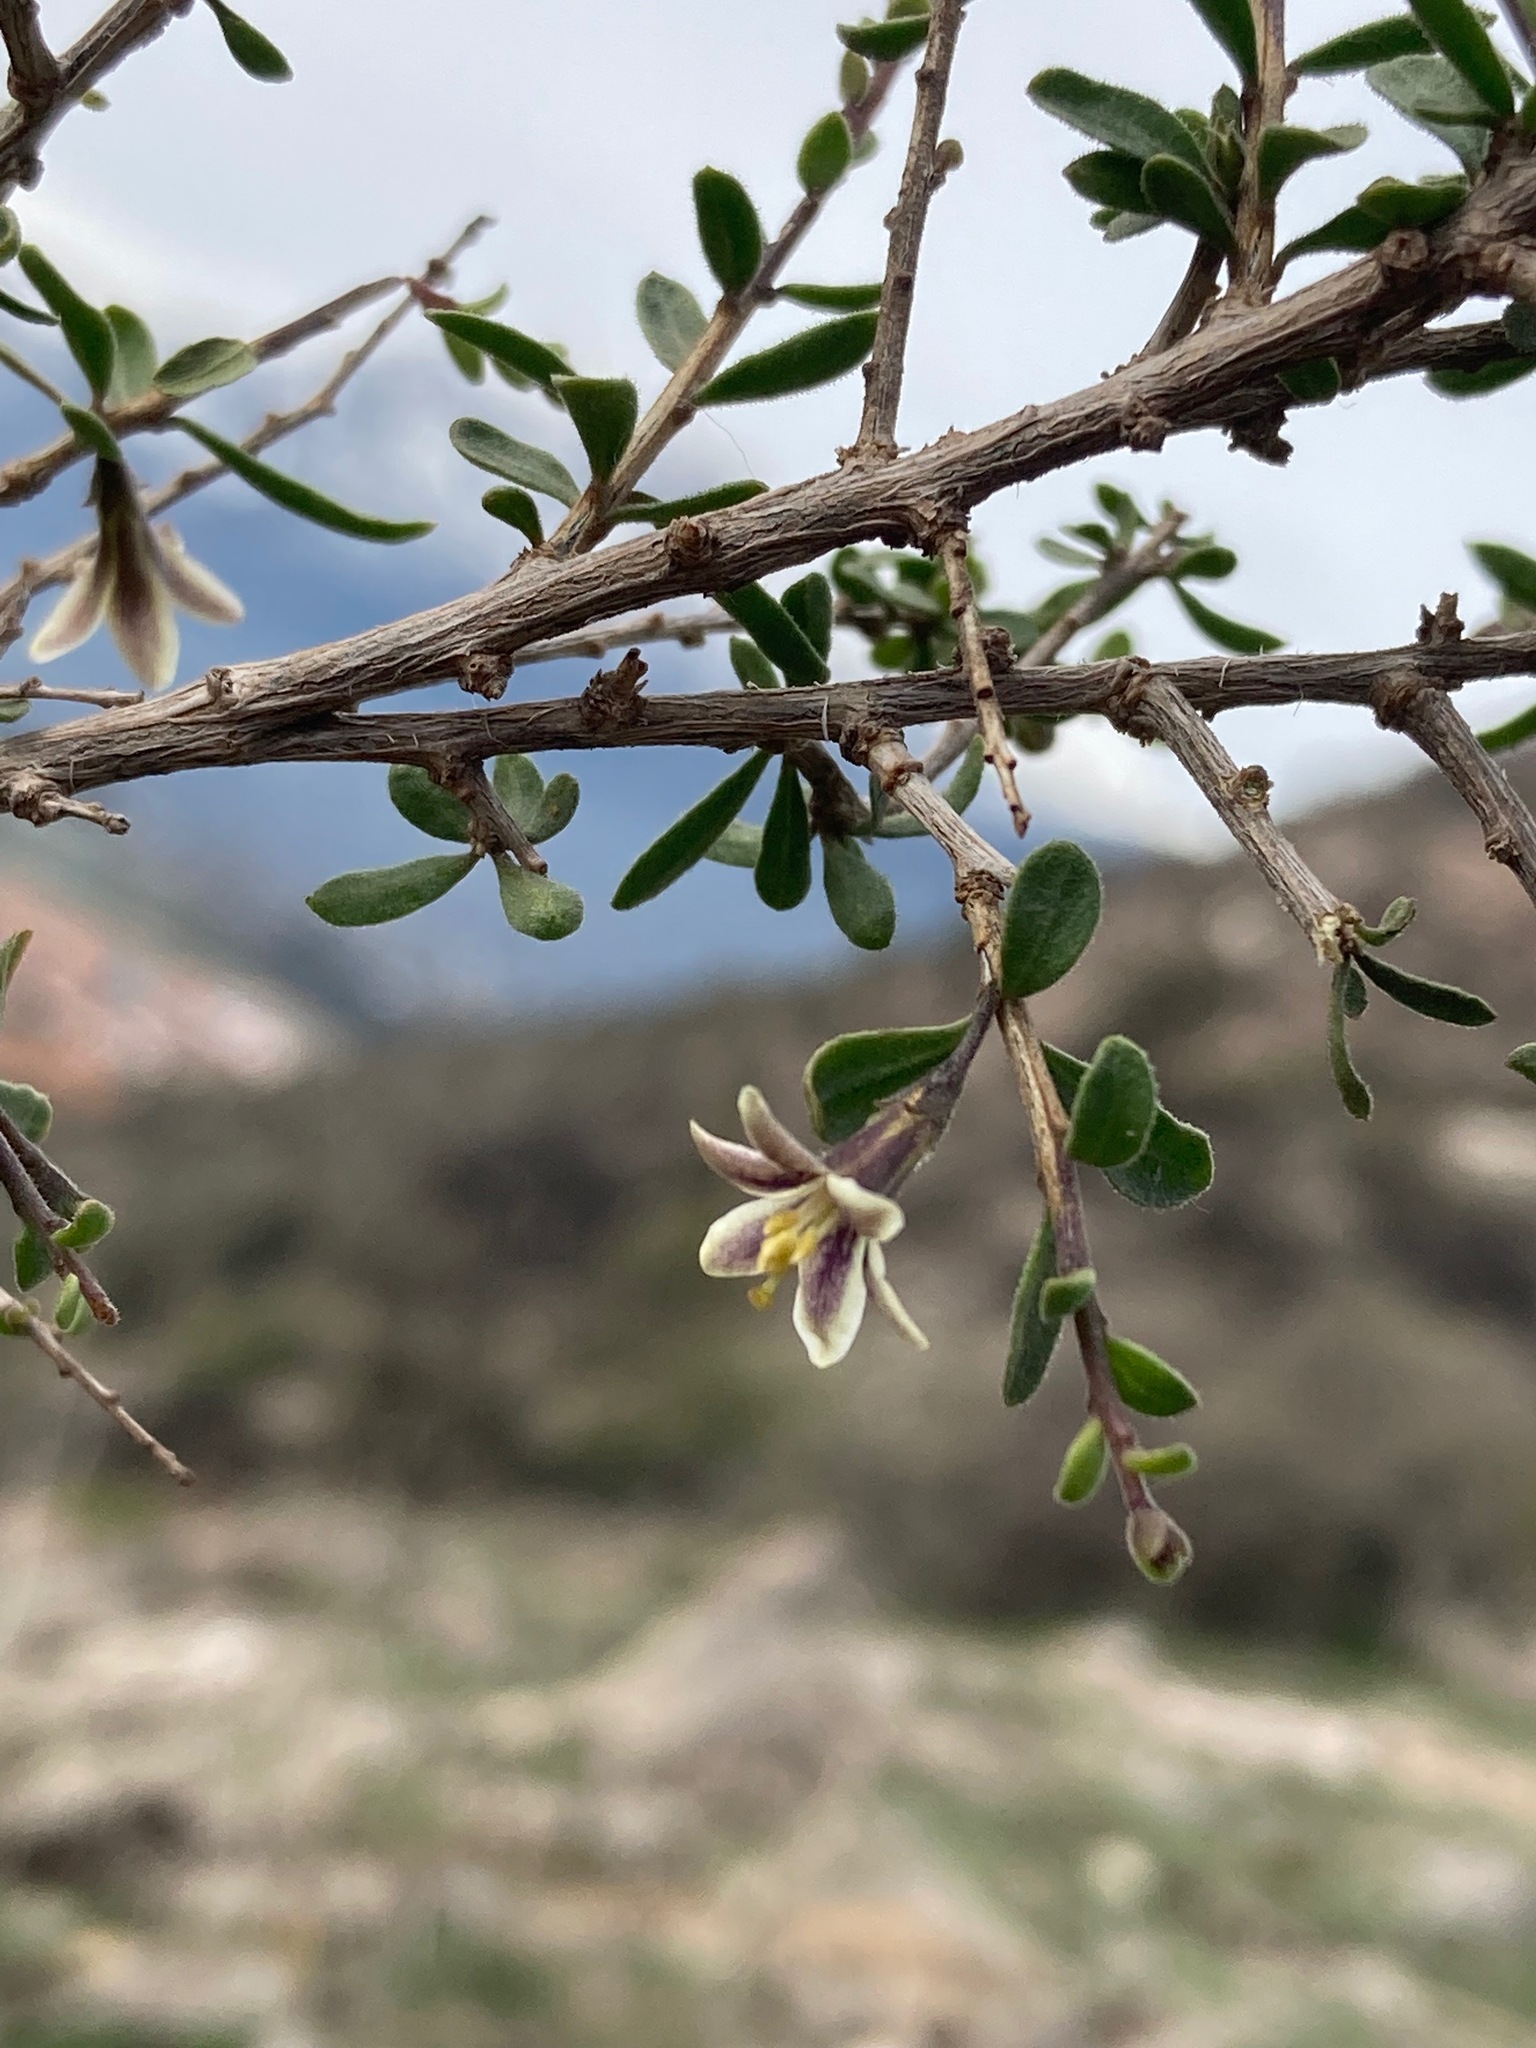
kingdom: Plantae
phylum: Tracheophyta
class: Magnoliopsida
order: Solanales
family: Solanaceae
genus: Lycium
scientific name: Lycium chilense
